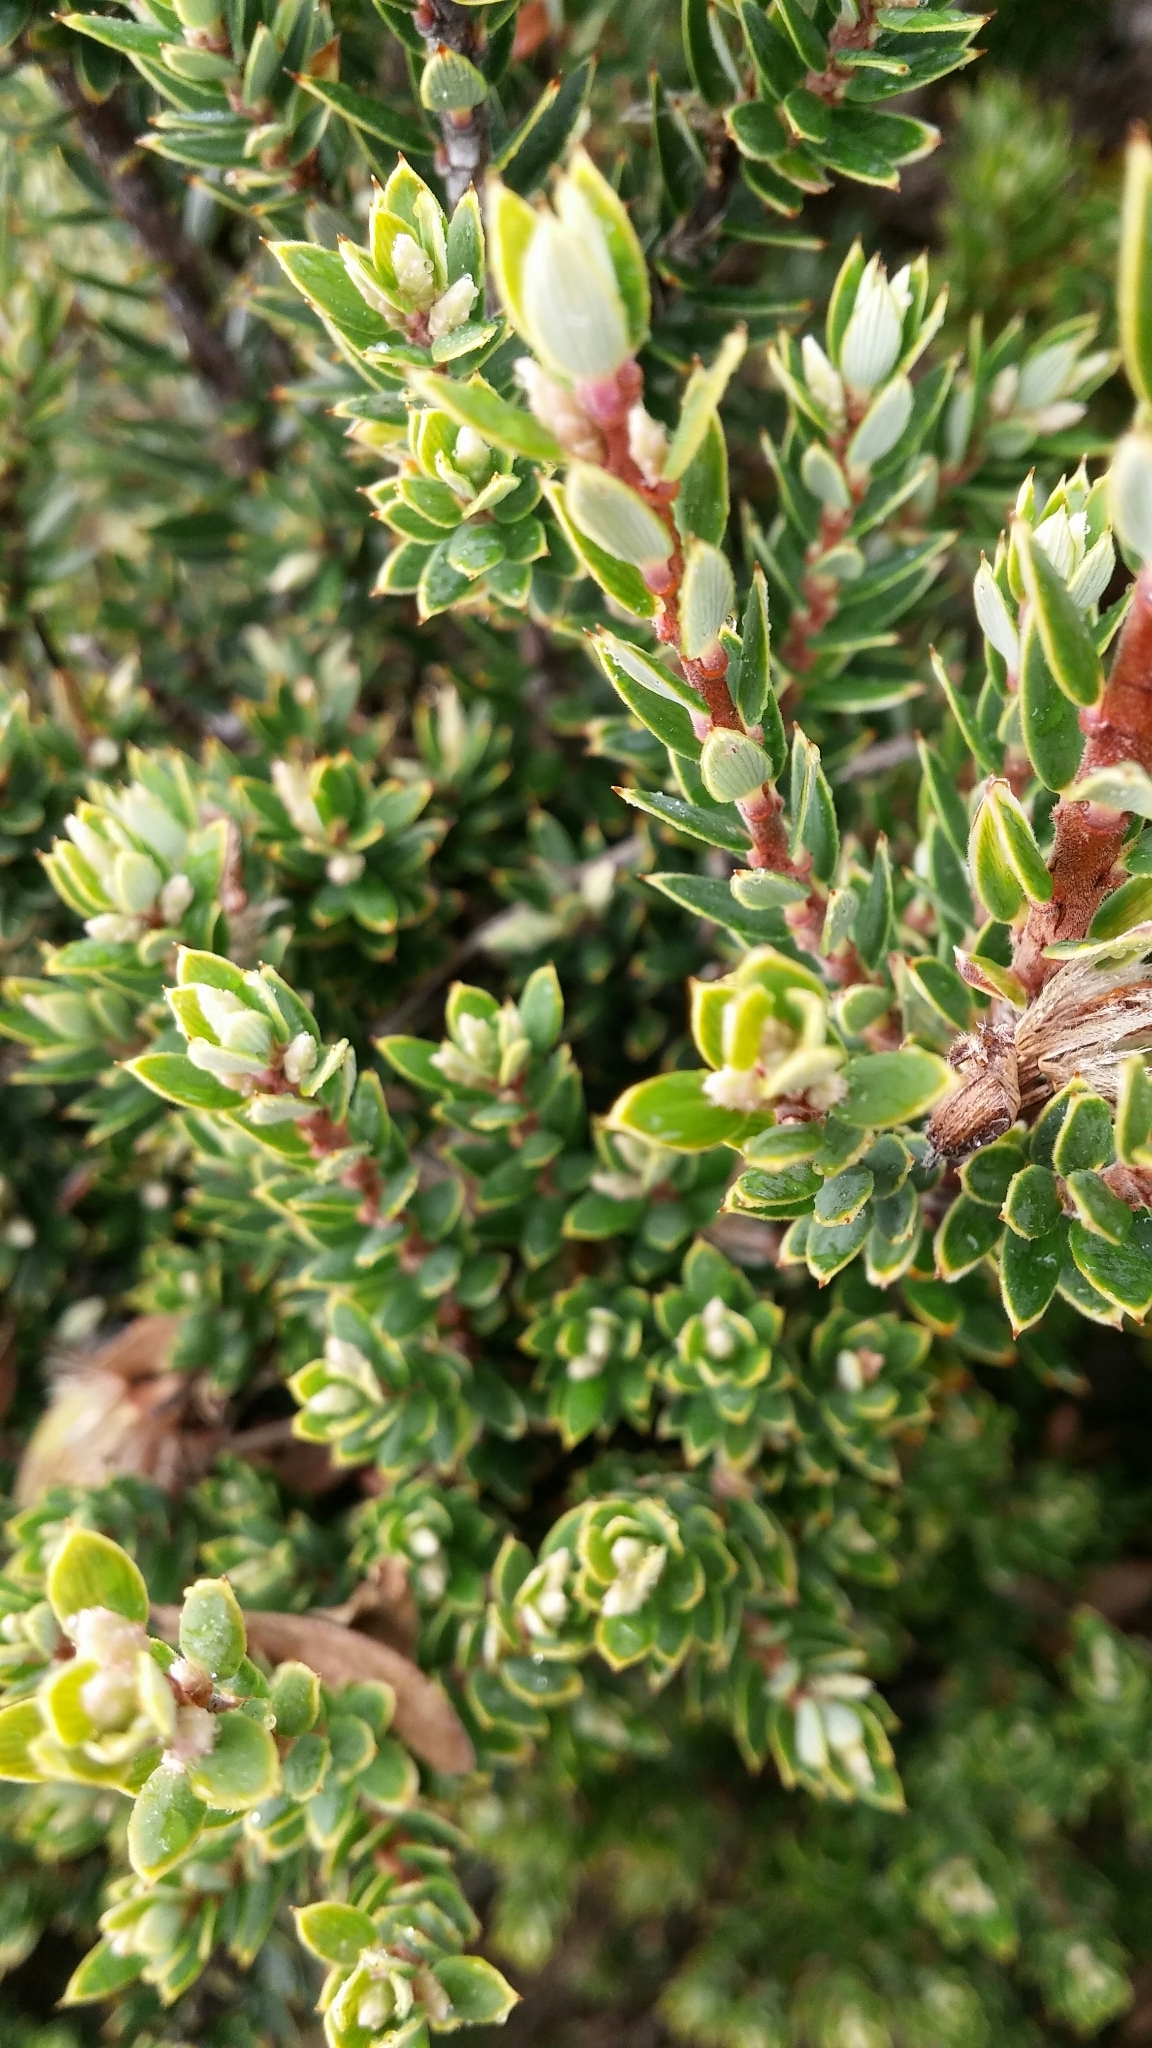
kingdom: Plantae
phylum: Tracheophyta
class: Magnoliopsida
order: Ericales
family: Ericaceae
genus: Leptecophylla
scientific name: Leptecophylla tameiameiae
